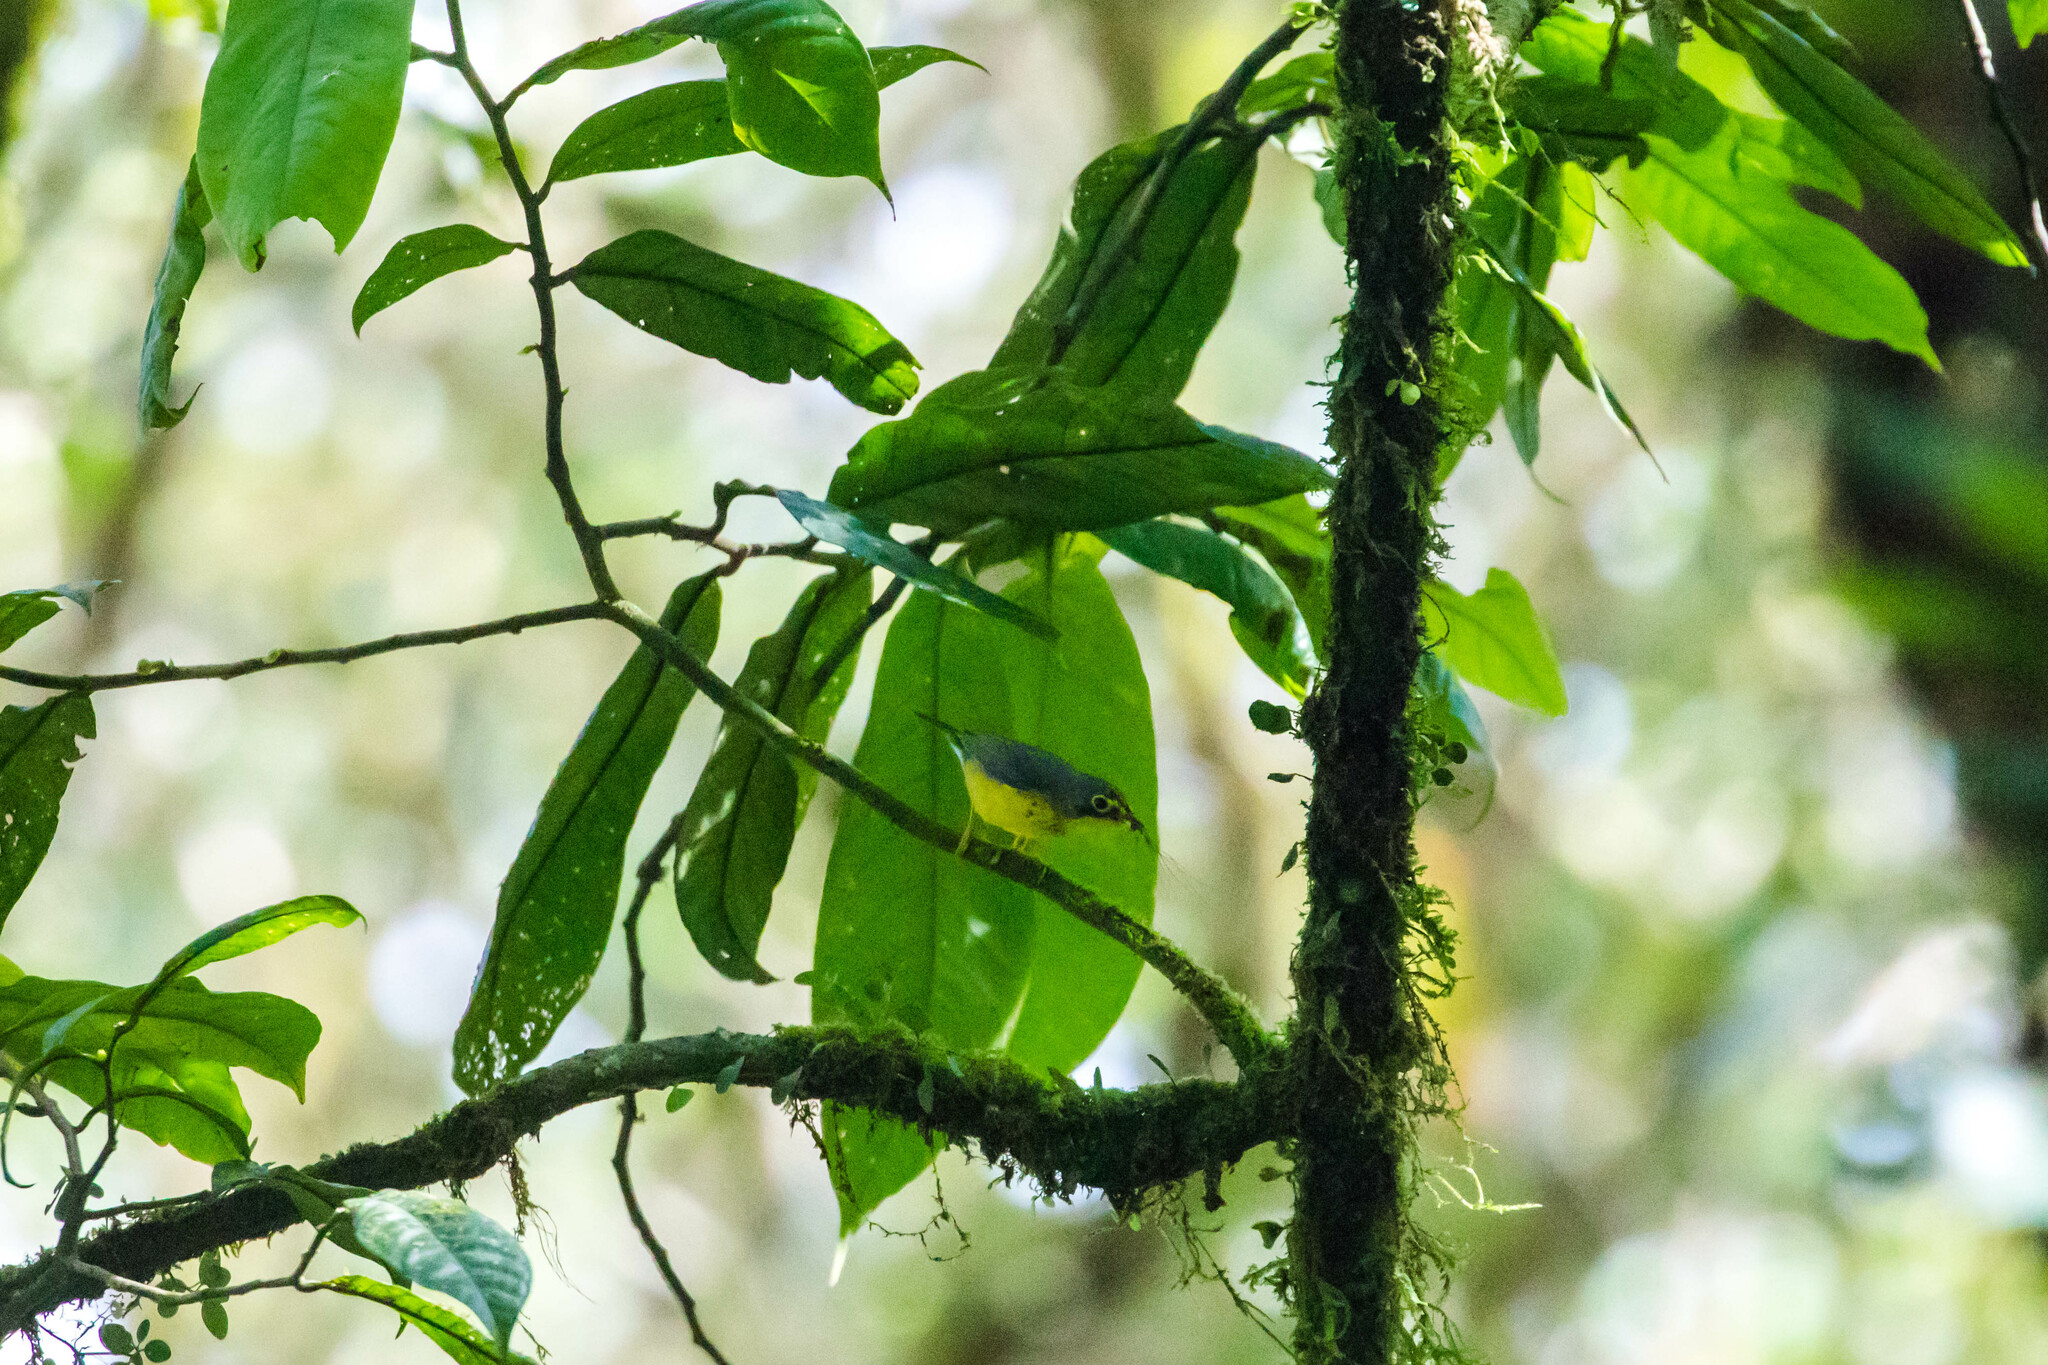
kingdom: Animalia
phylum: Chordata
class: Aves
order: Passeriformes
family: Parulidae
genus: Cardellina
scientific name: Cardellina canadensis
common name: Canada warbler
